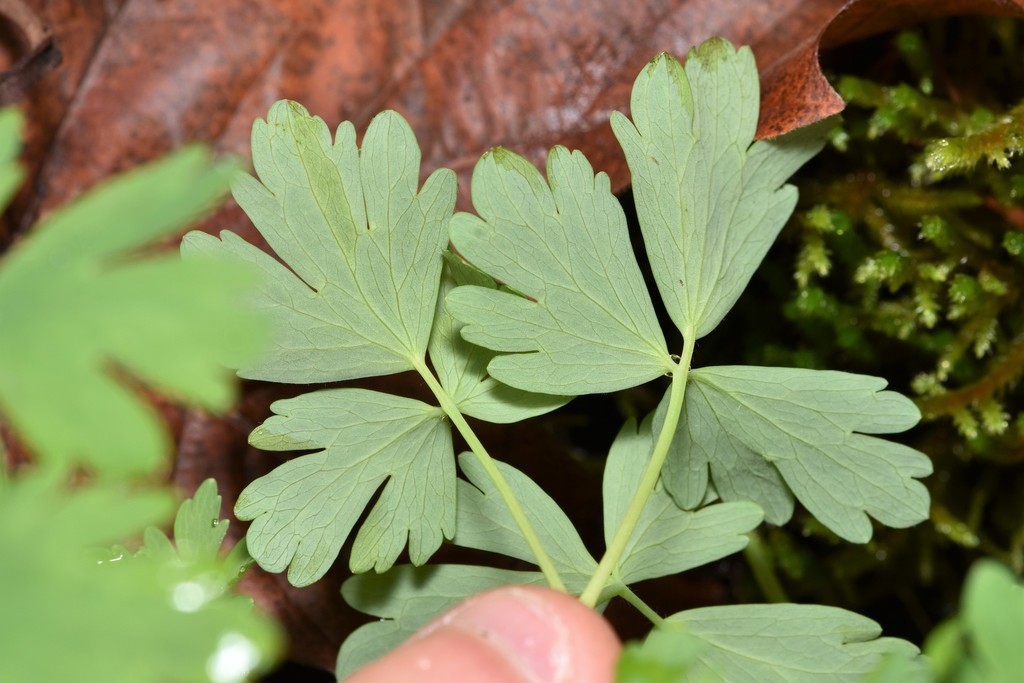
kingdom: Plantae
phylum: Tracheophyta
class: Magnoliopsida
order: Ranunculales
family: Ranunculaceae
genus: Aquilegia
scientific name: Aquilegia formosa
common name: Sitka columbine
